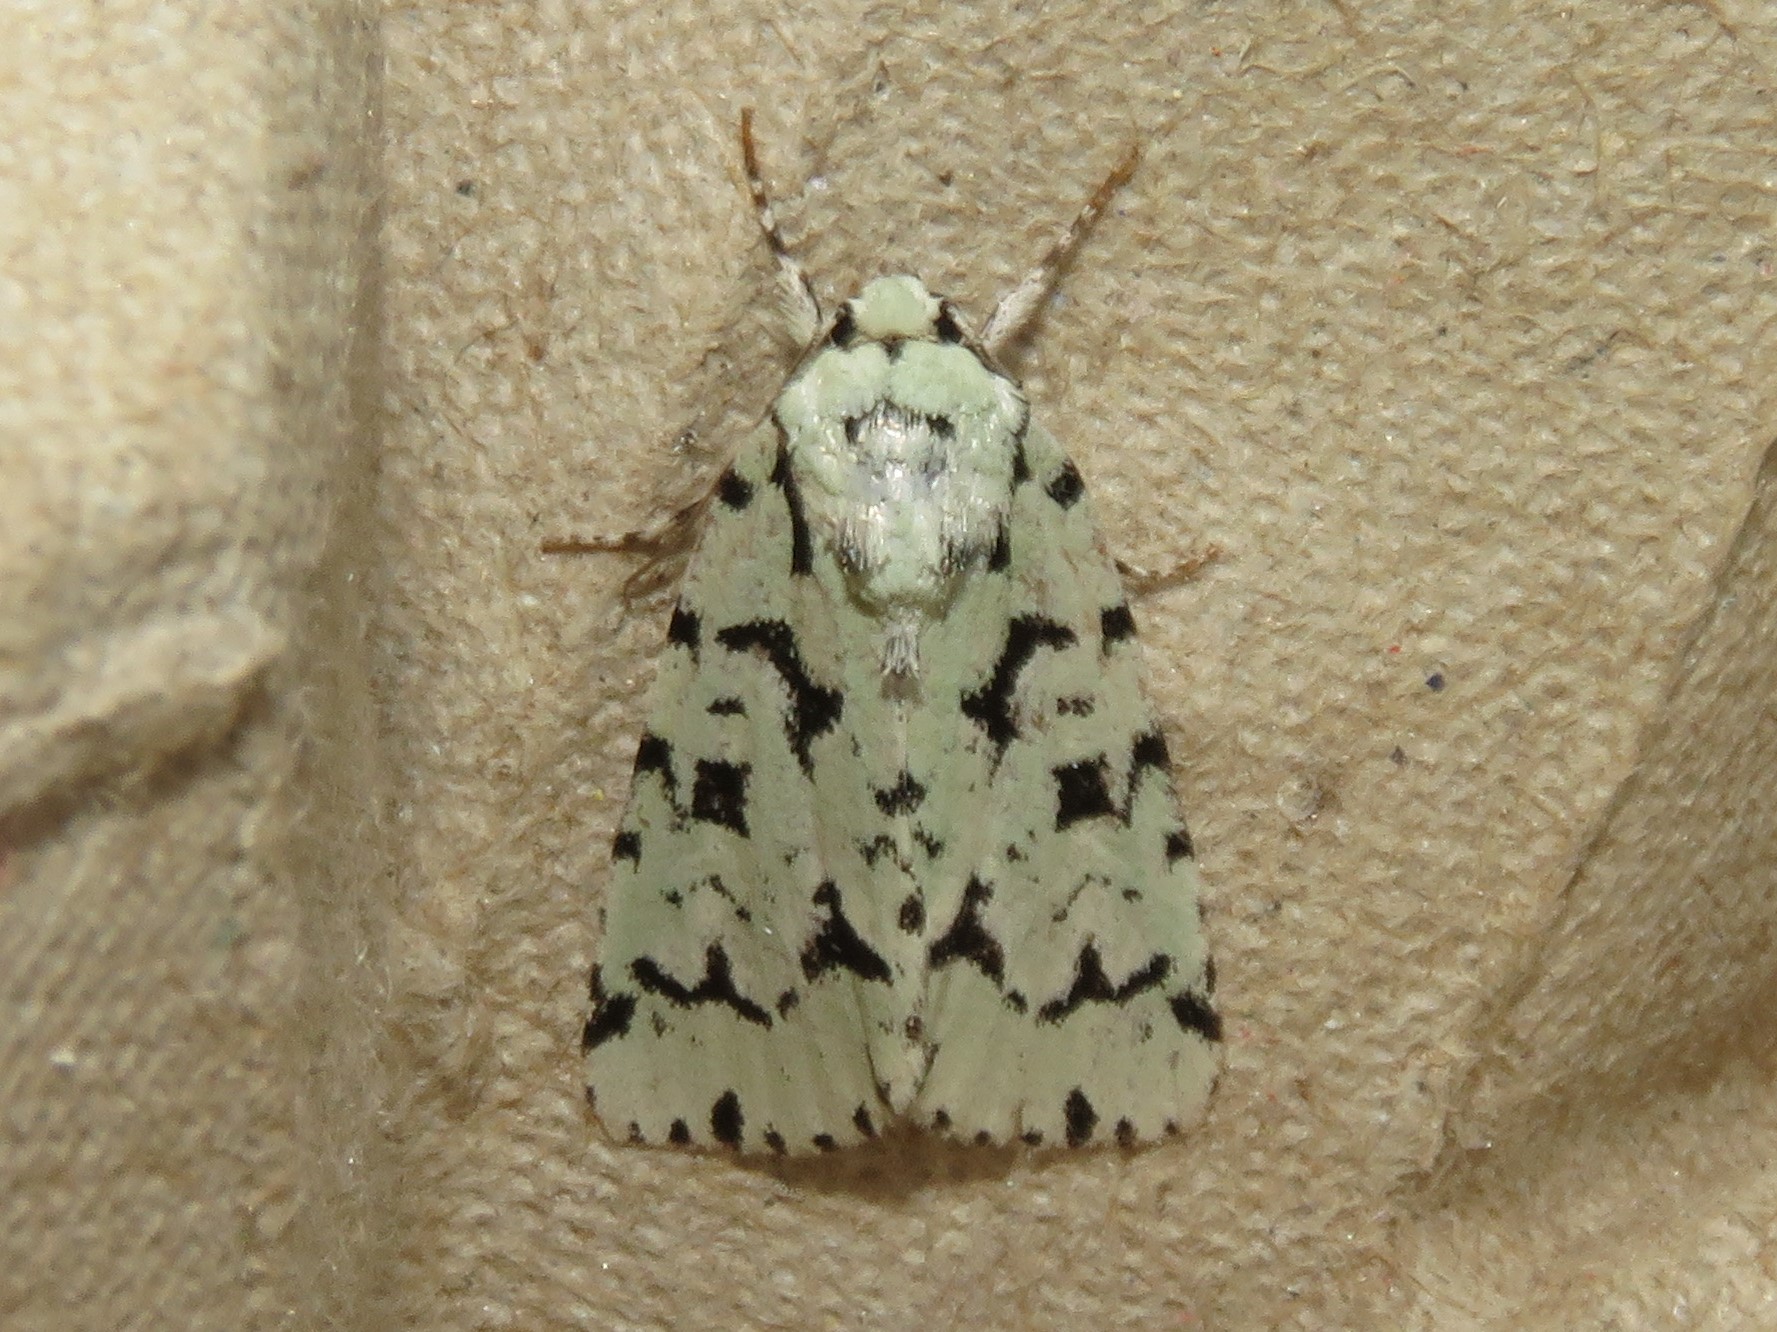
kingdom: Animalia
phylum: Arthropoda
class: Insecta
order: Lepidoptera
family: Noctuidae
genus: Acronicta
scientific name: Acronicta fallax
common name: Green marvel
